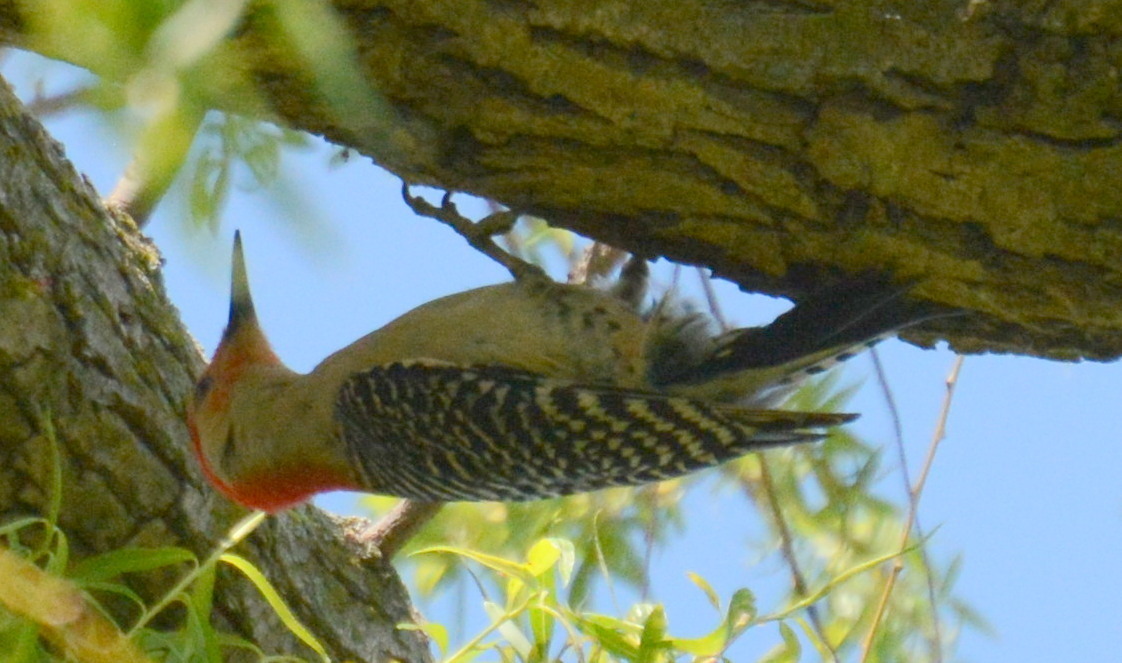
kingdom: Animalia
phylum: Chordata
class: Aves
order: Piciformes
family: Picidae
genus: Melanerpes
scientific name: Melanerpes carolinus
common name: Red-bellied woodpecker
